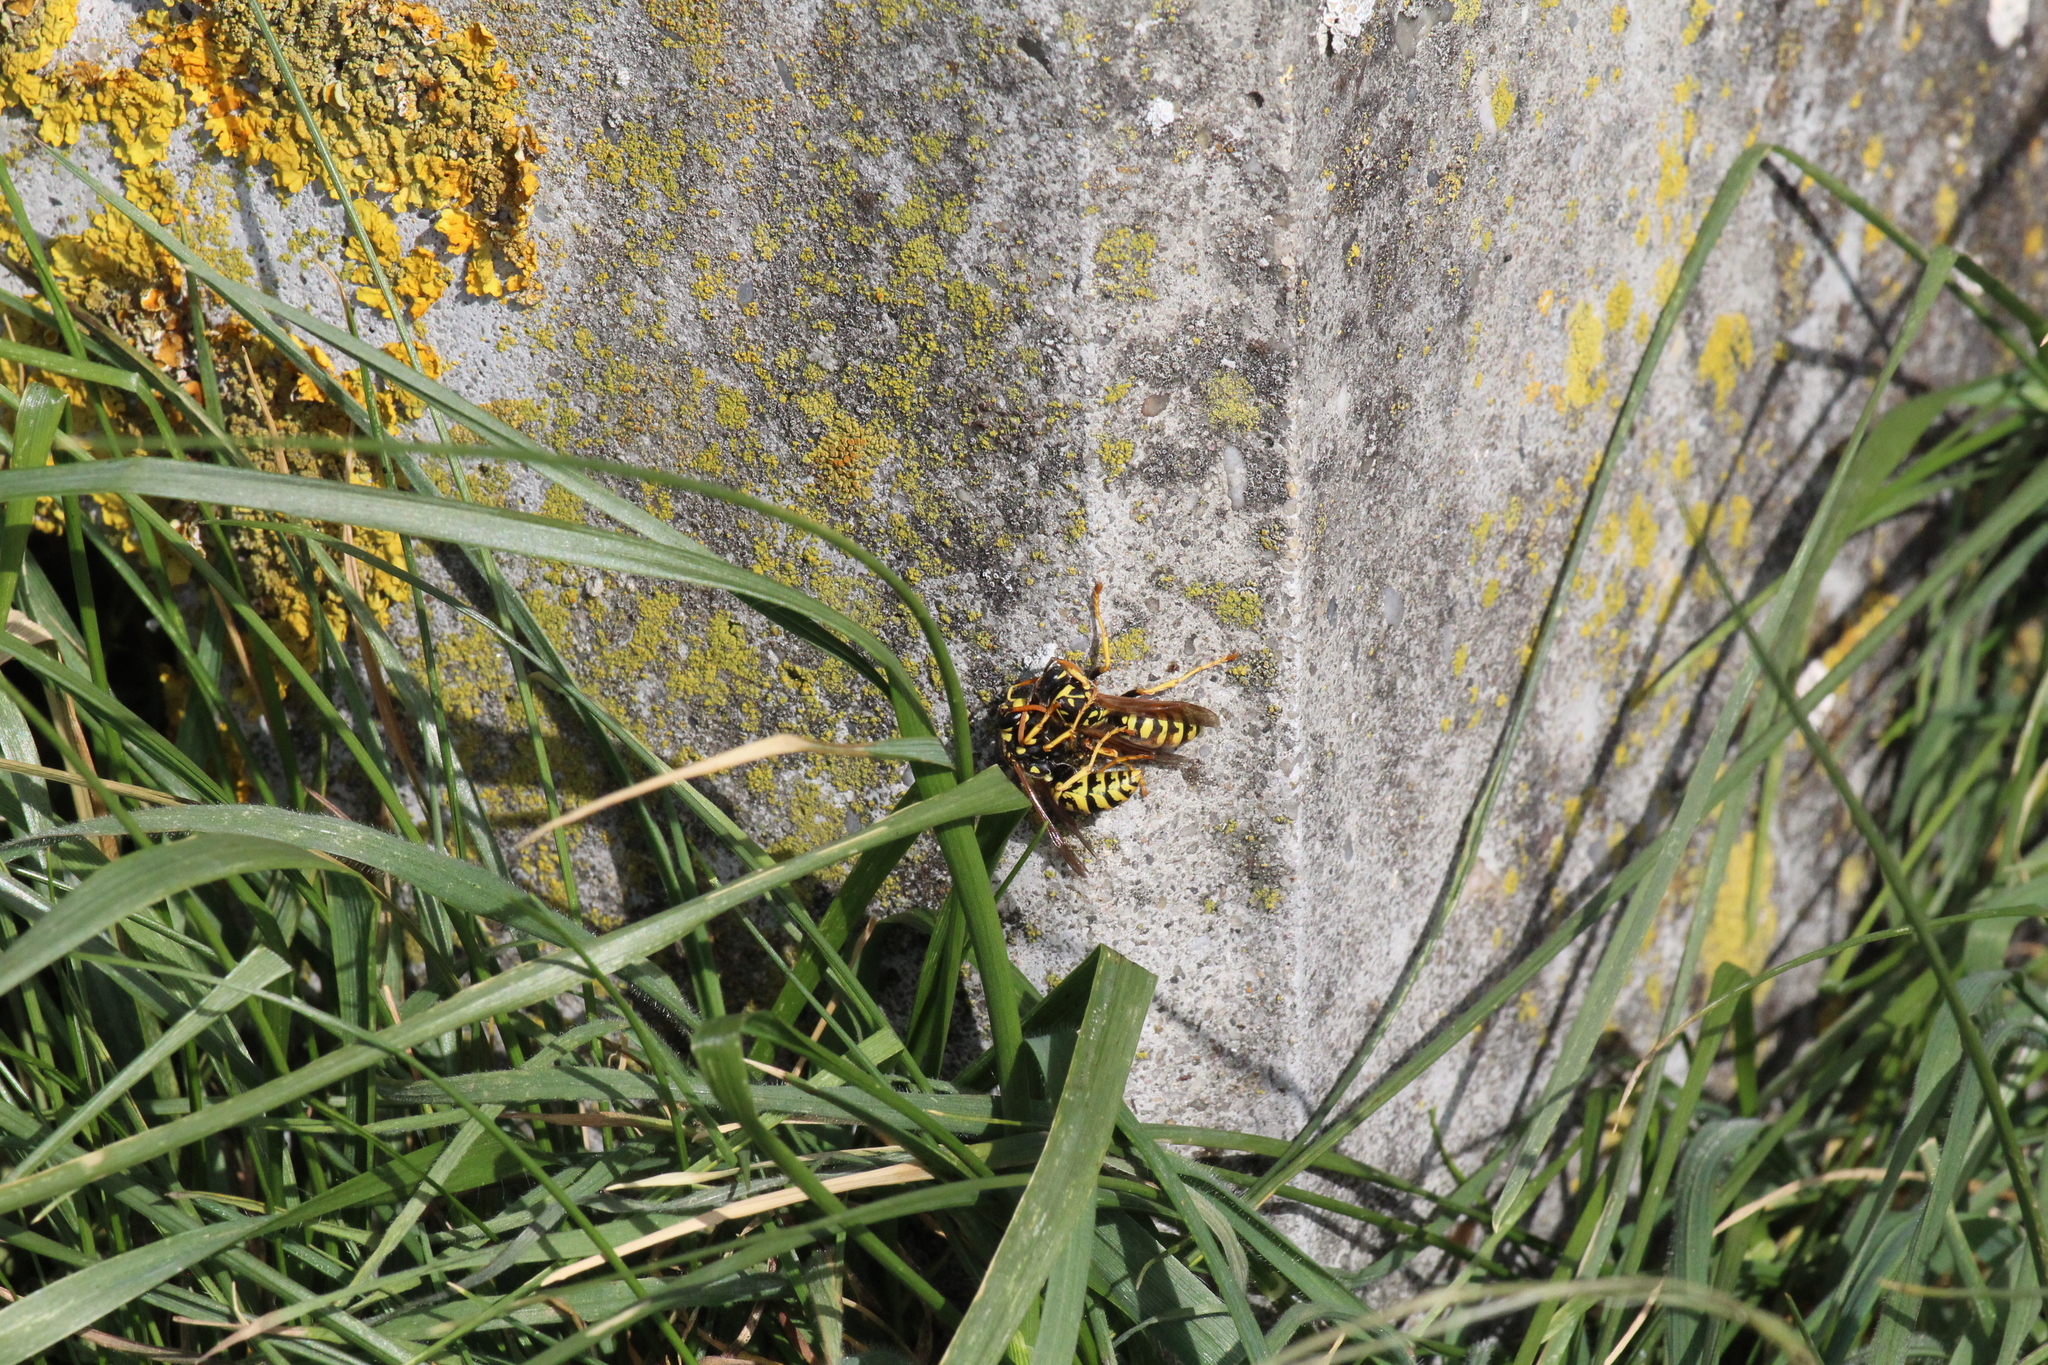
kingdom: Animalia
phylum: Arthropoda
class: Insecta
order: Hymenoptera
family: Eumenidae
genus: Polistes
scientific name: Polistes dominula
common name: Paper wasp
